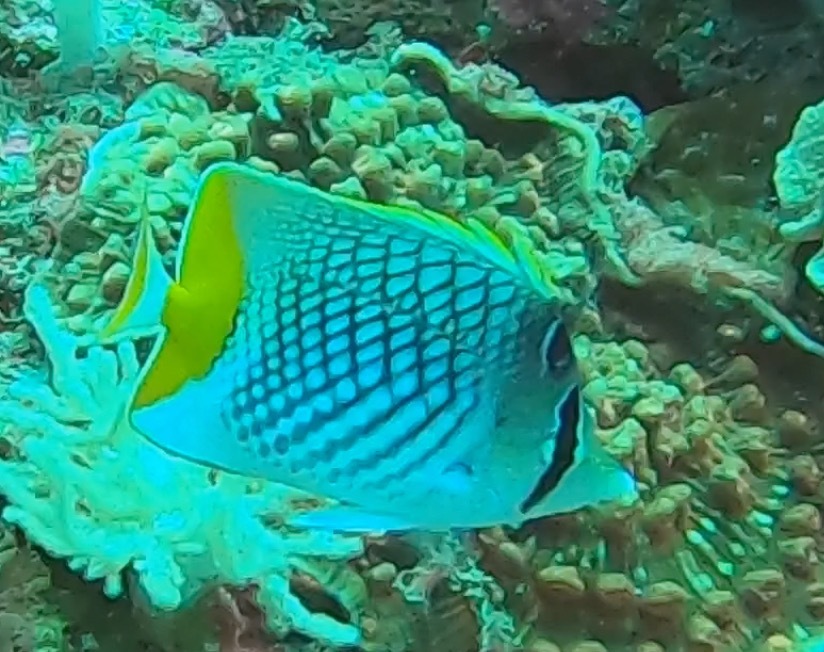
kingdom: Animalia
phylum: Chordata
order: Perciformes
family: Chaetodontidae
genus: Chaetodon
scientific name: Chaetodon xanthurus
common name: Philippine chevron butterflyfish
